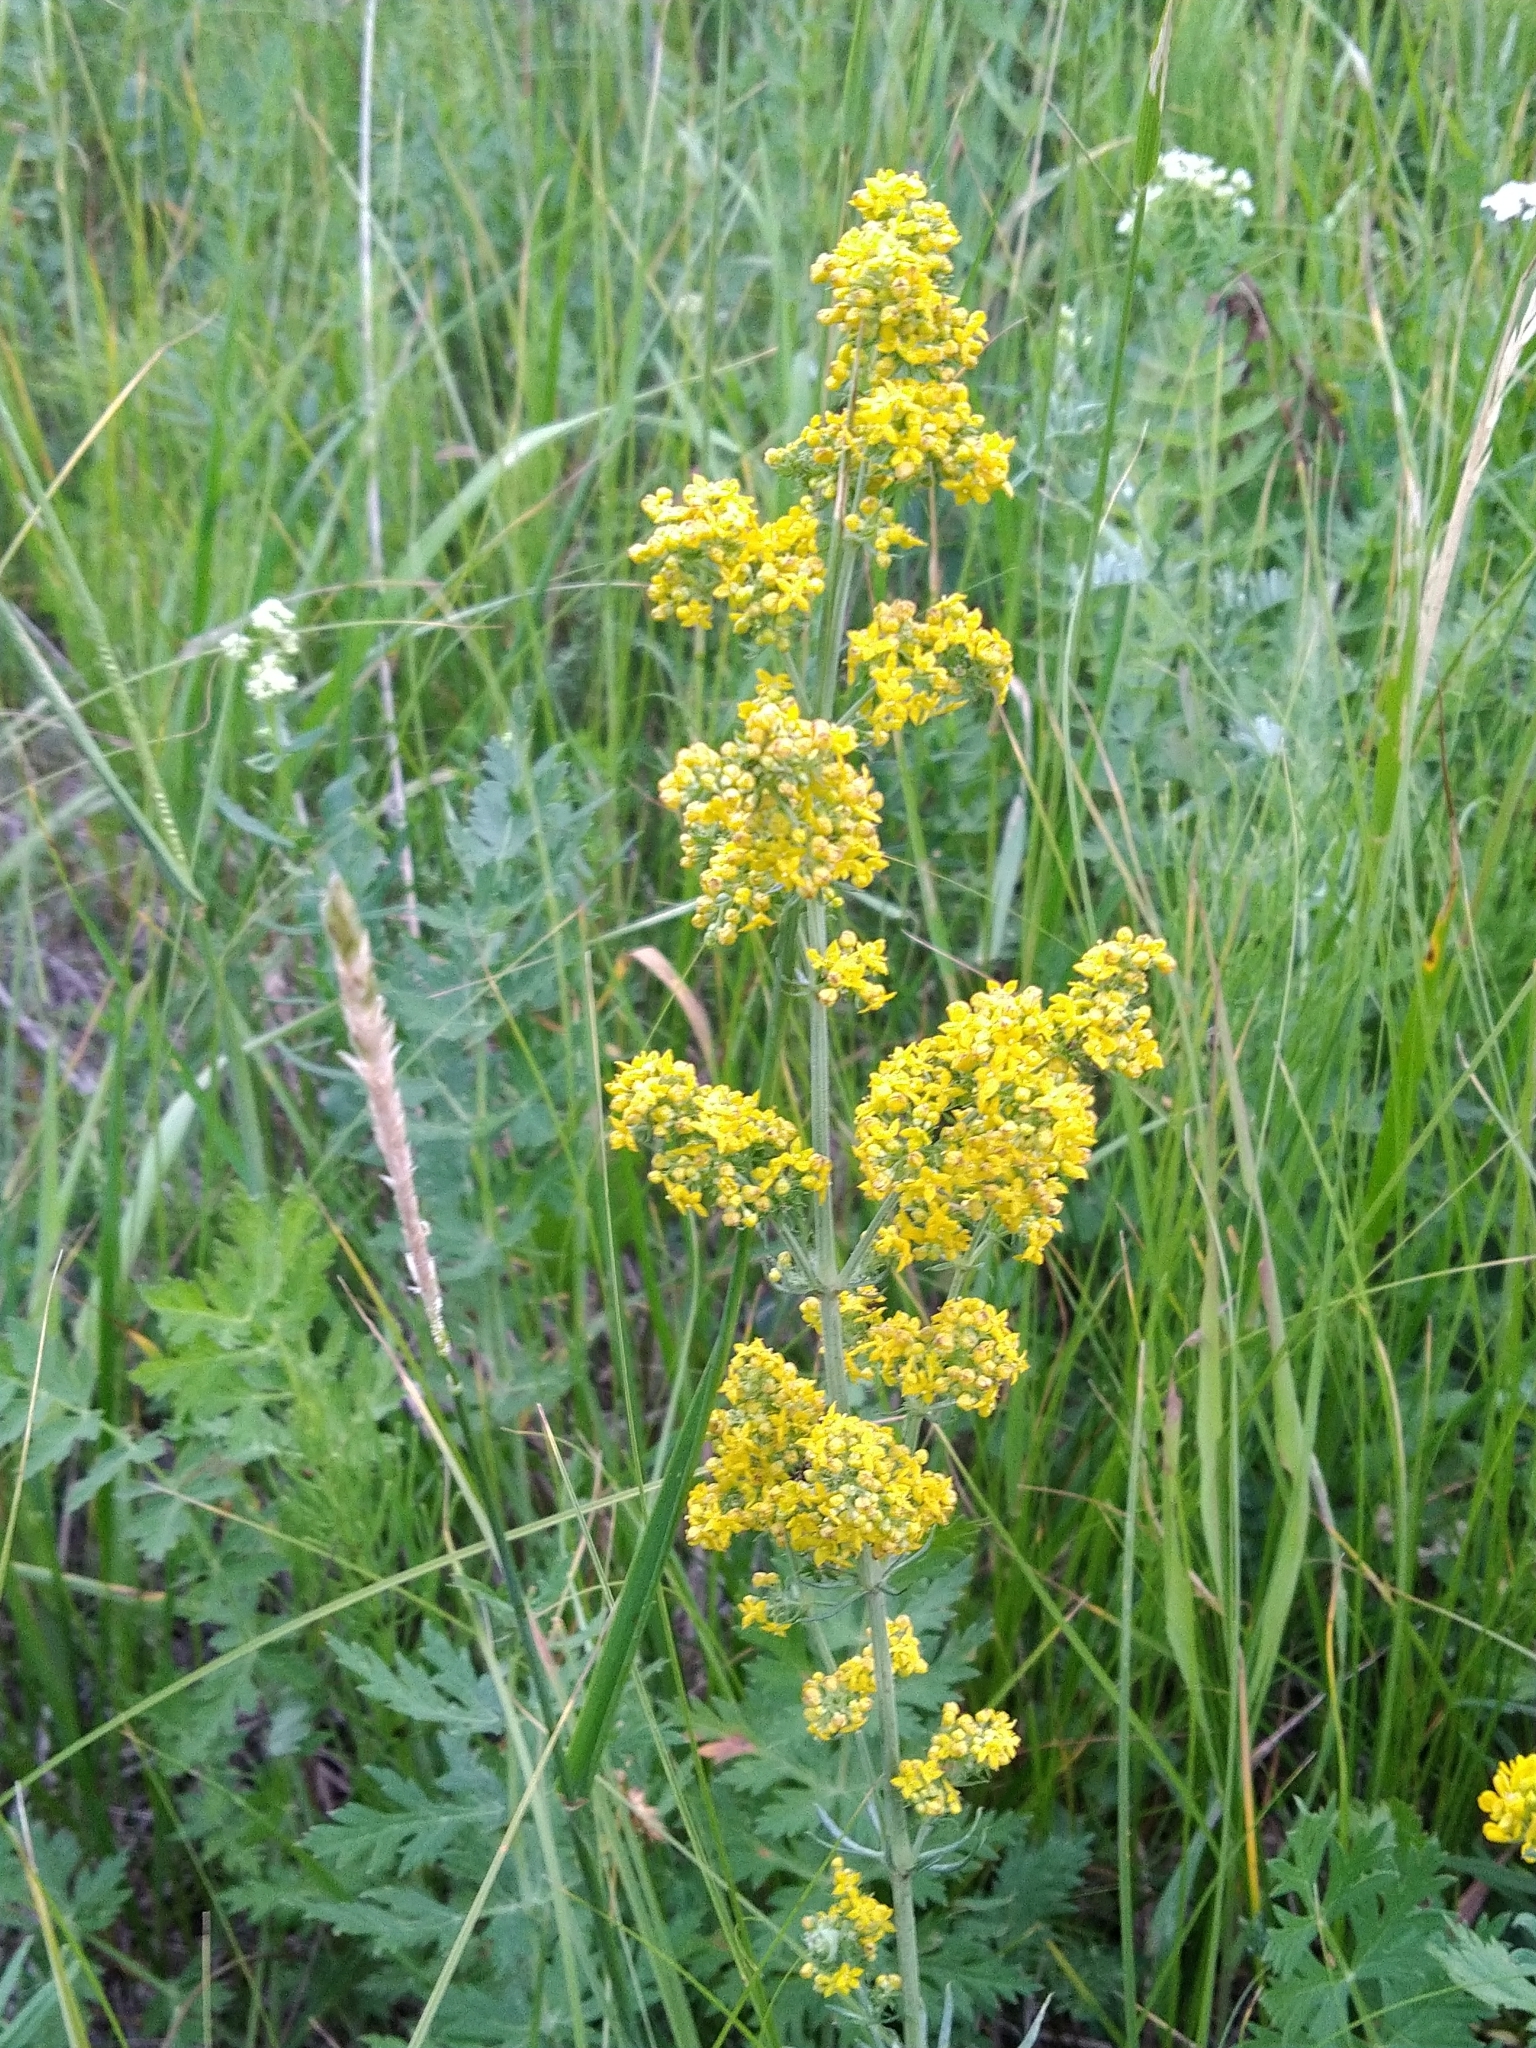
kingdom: Plantae
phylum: Tracheophyta
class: Magnoliopsida
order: Gentianales
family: Rubiaceae
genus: Galium
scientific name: Galium verum
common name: Lady's bedstraw
